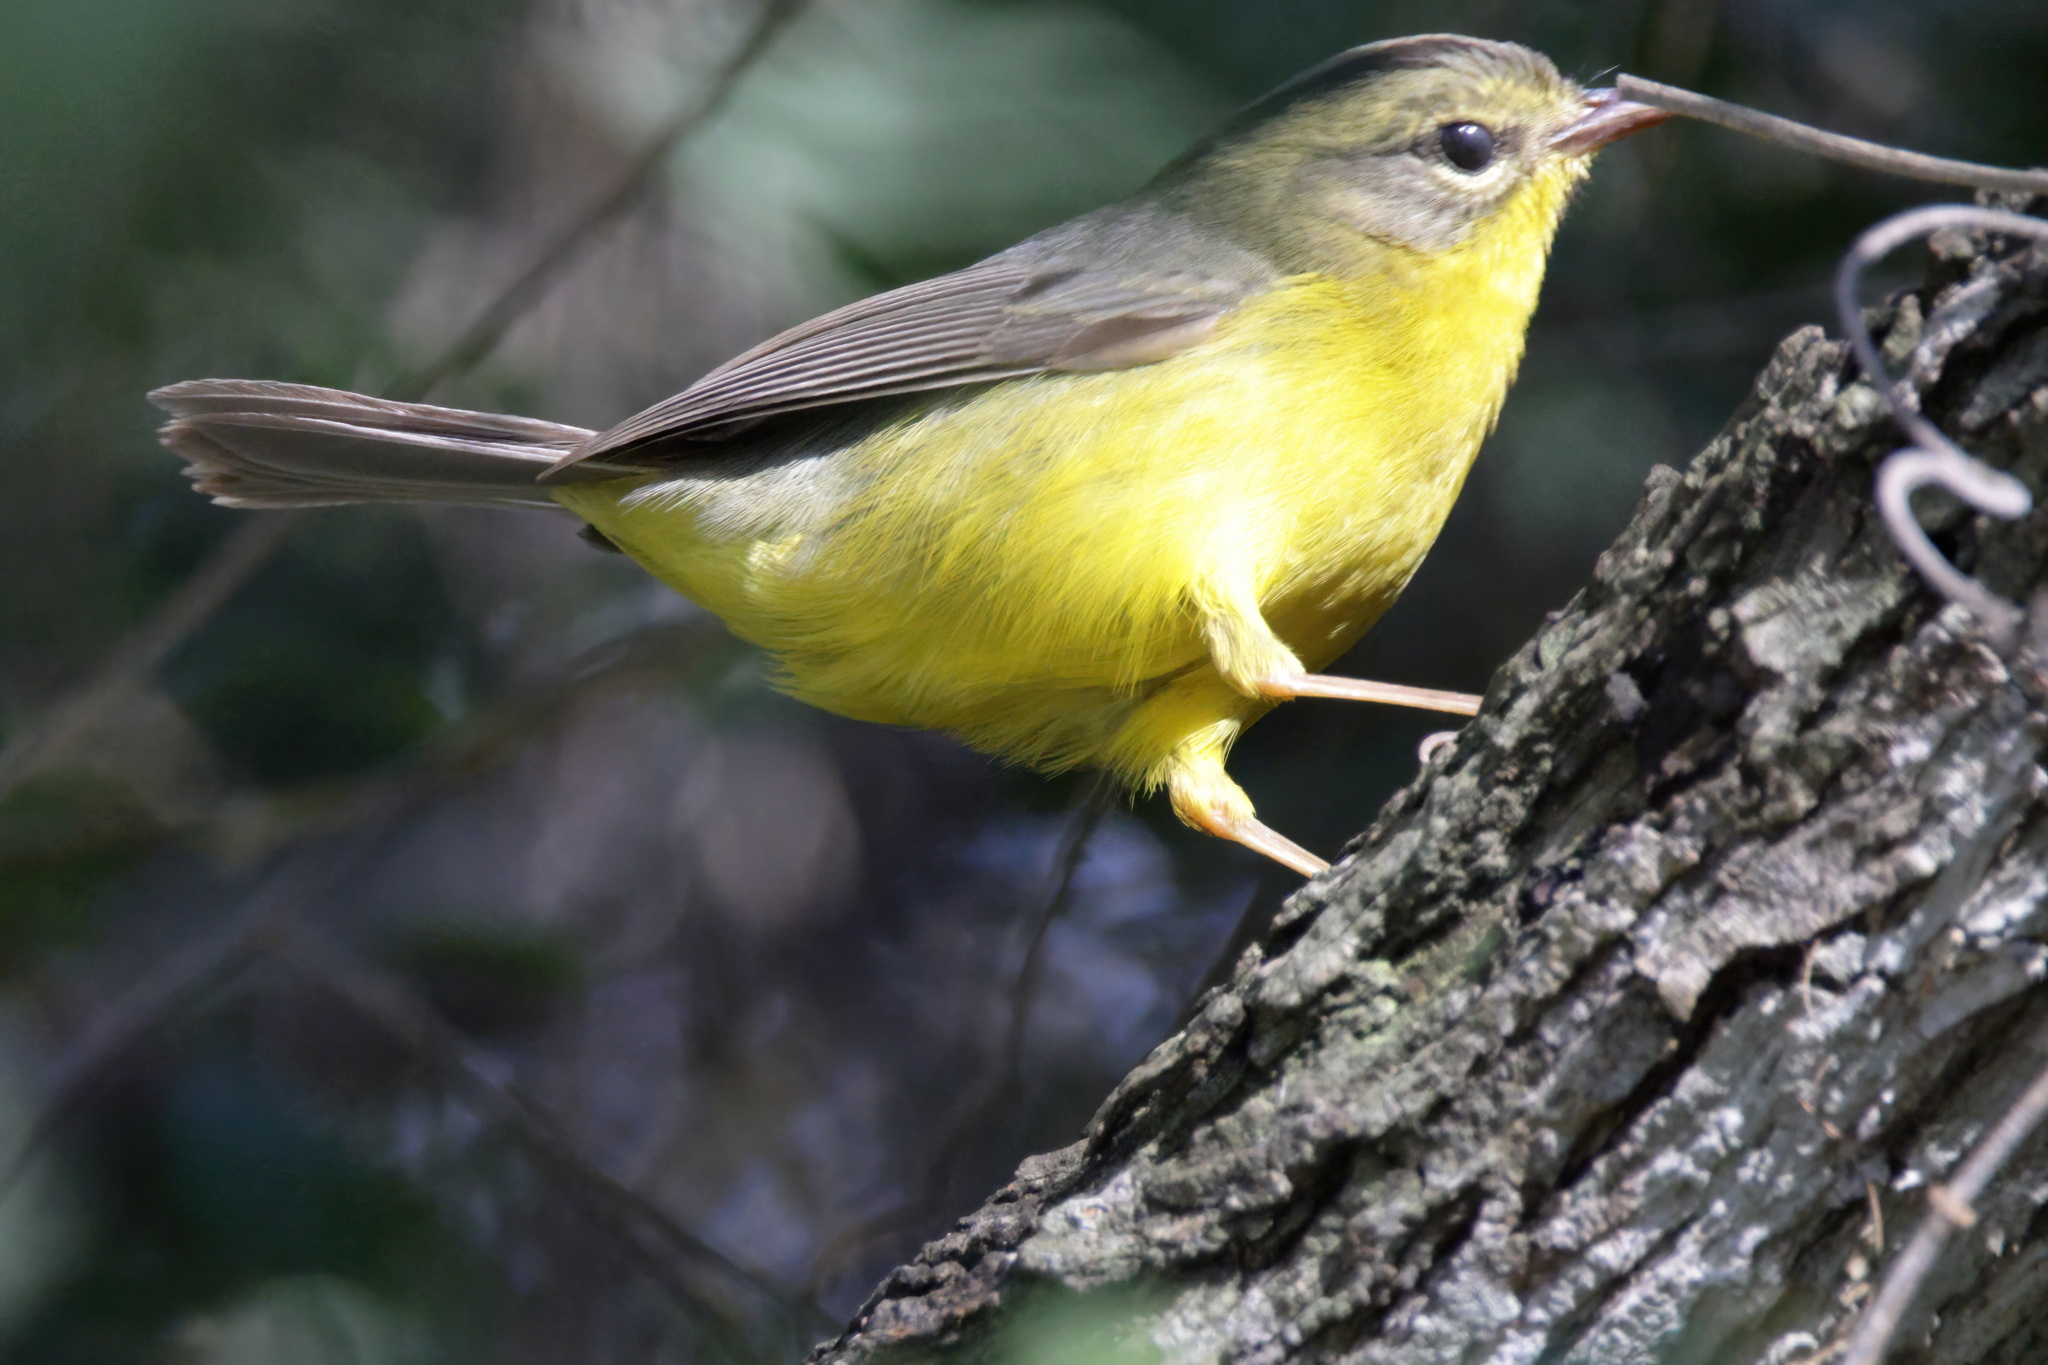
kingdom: Animalia
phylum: Chordata
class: Aves
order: Passeriformes
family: Parulidae
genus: Basileuterus
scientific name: Basileuterus culicivorus
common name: Golden-crowned warbler
